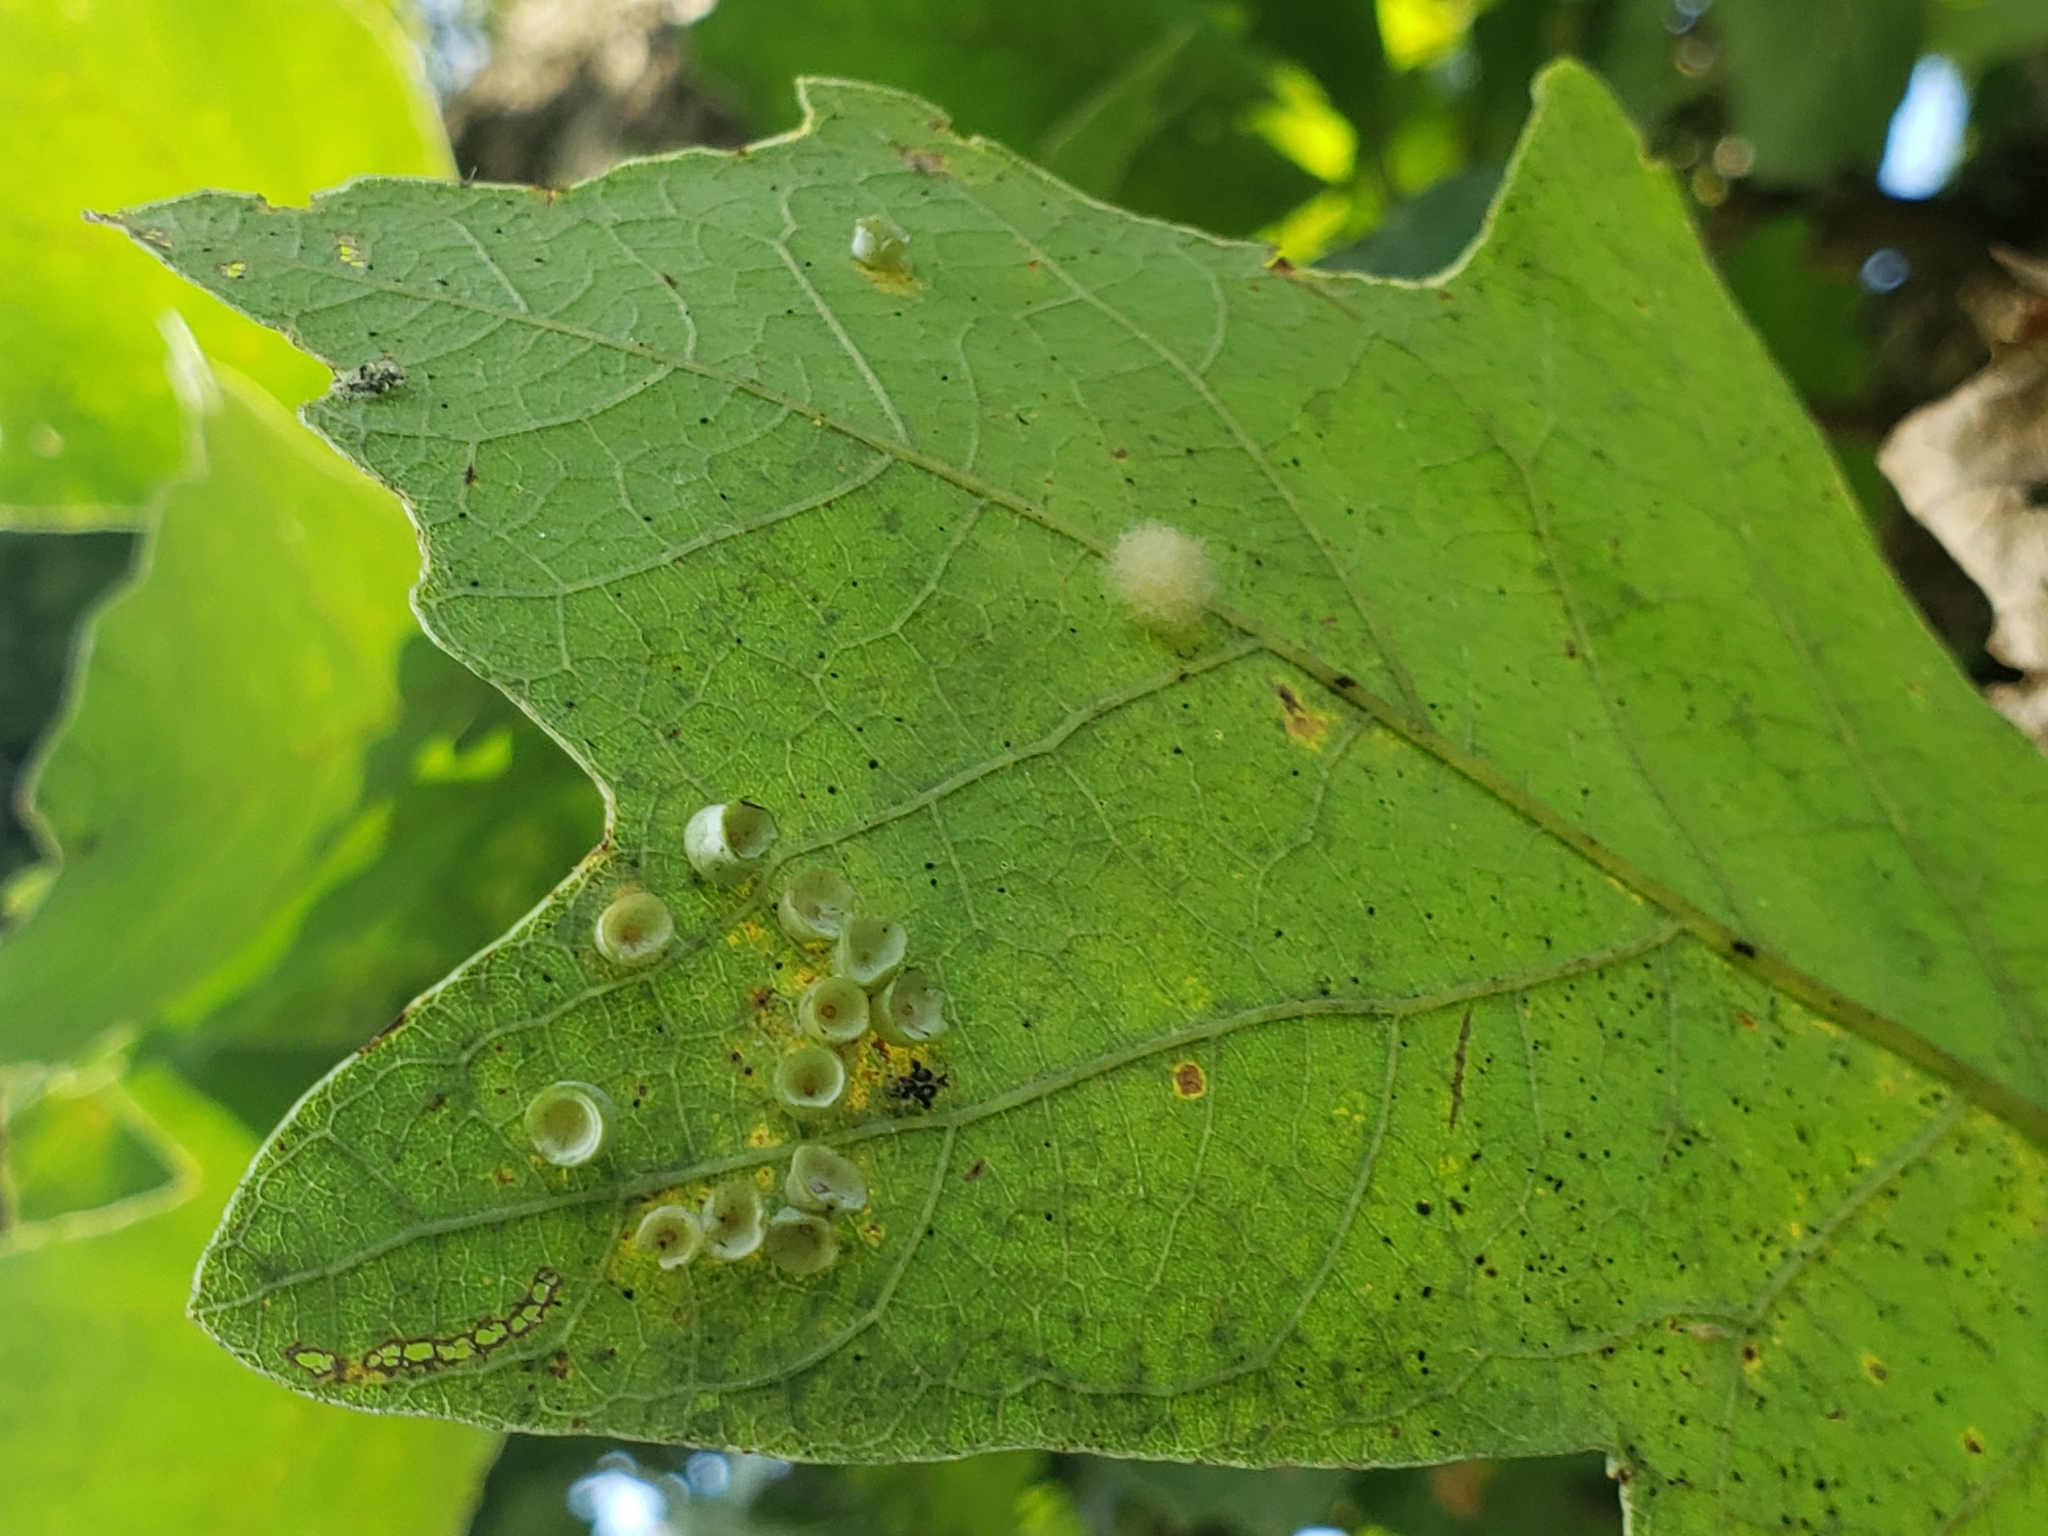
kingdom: Animalia
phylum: Arthropoda
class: Insecta
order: Hymenoptera
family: Cynipidae
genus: Phylloteras
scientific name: Phylloteras
